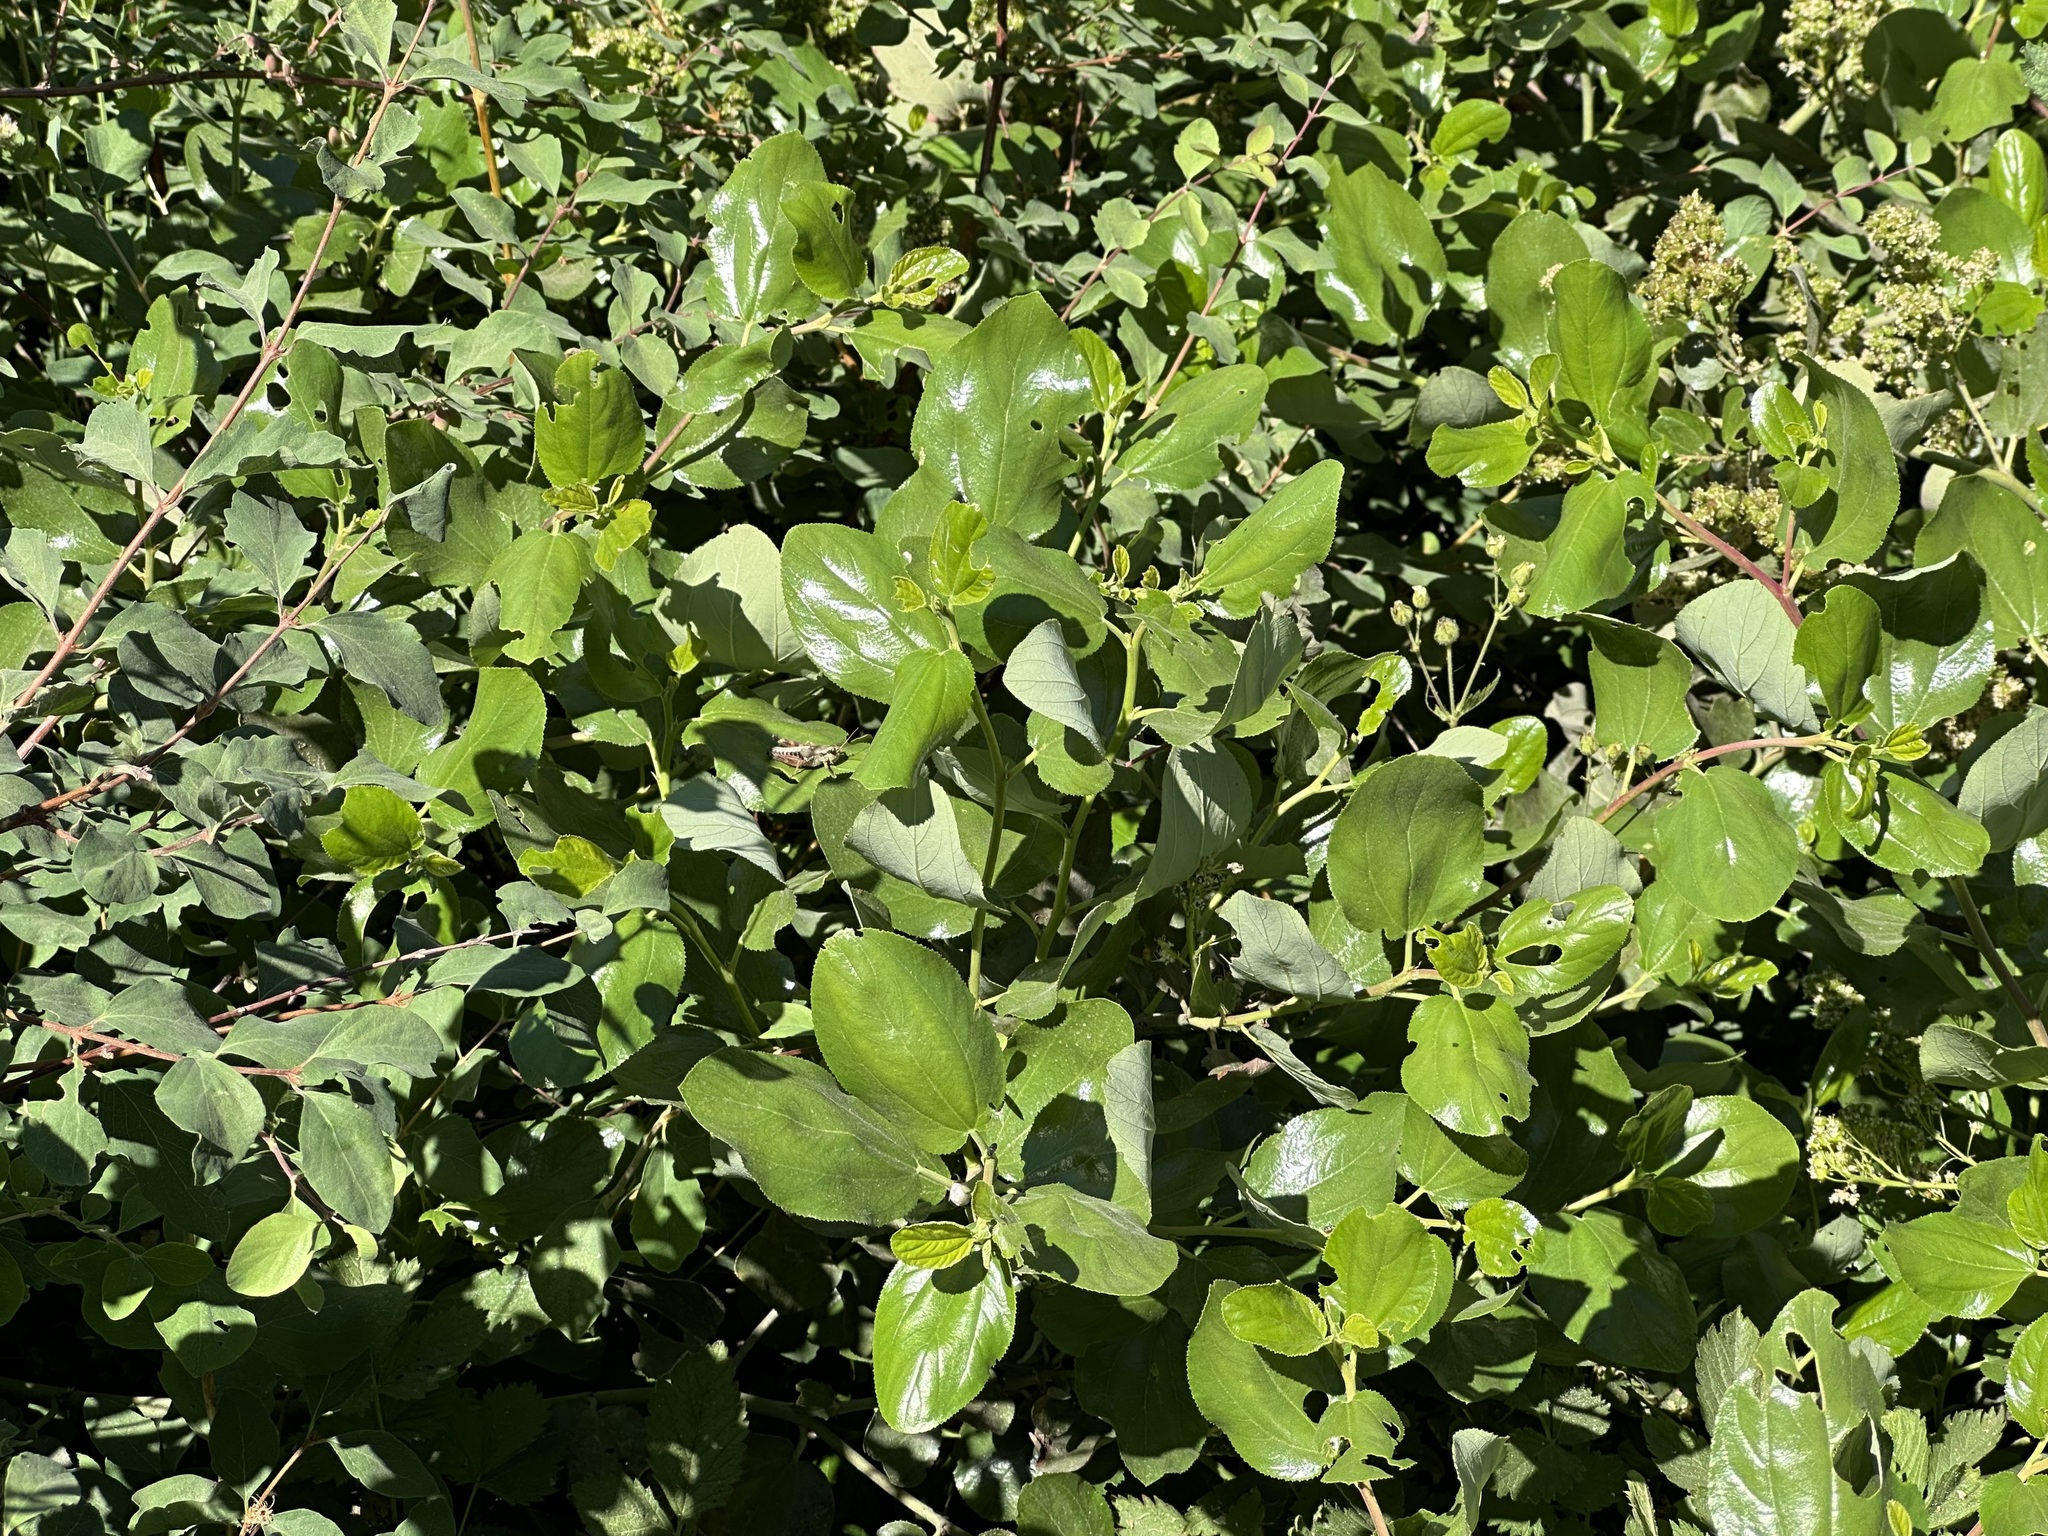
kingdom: Plantae
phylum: Tracheophyta
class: Magnoliopsida
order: Rosales
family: Rhamnaceae
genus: Ceanothus
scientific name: Ceanothus velutinus
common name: Snowbrush
